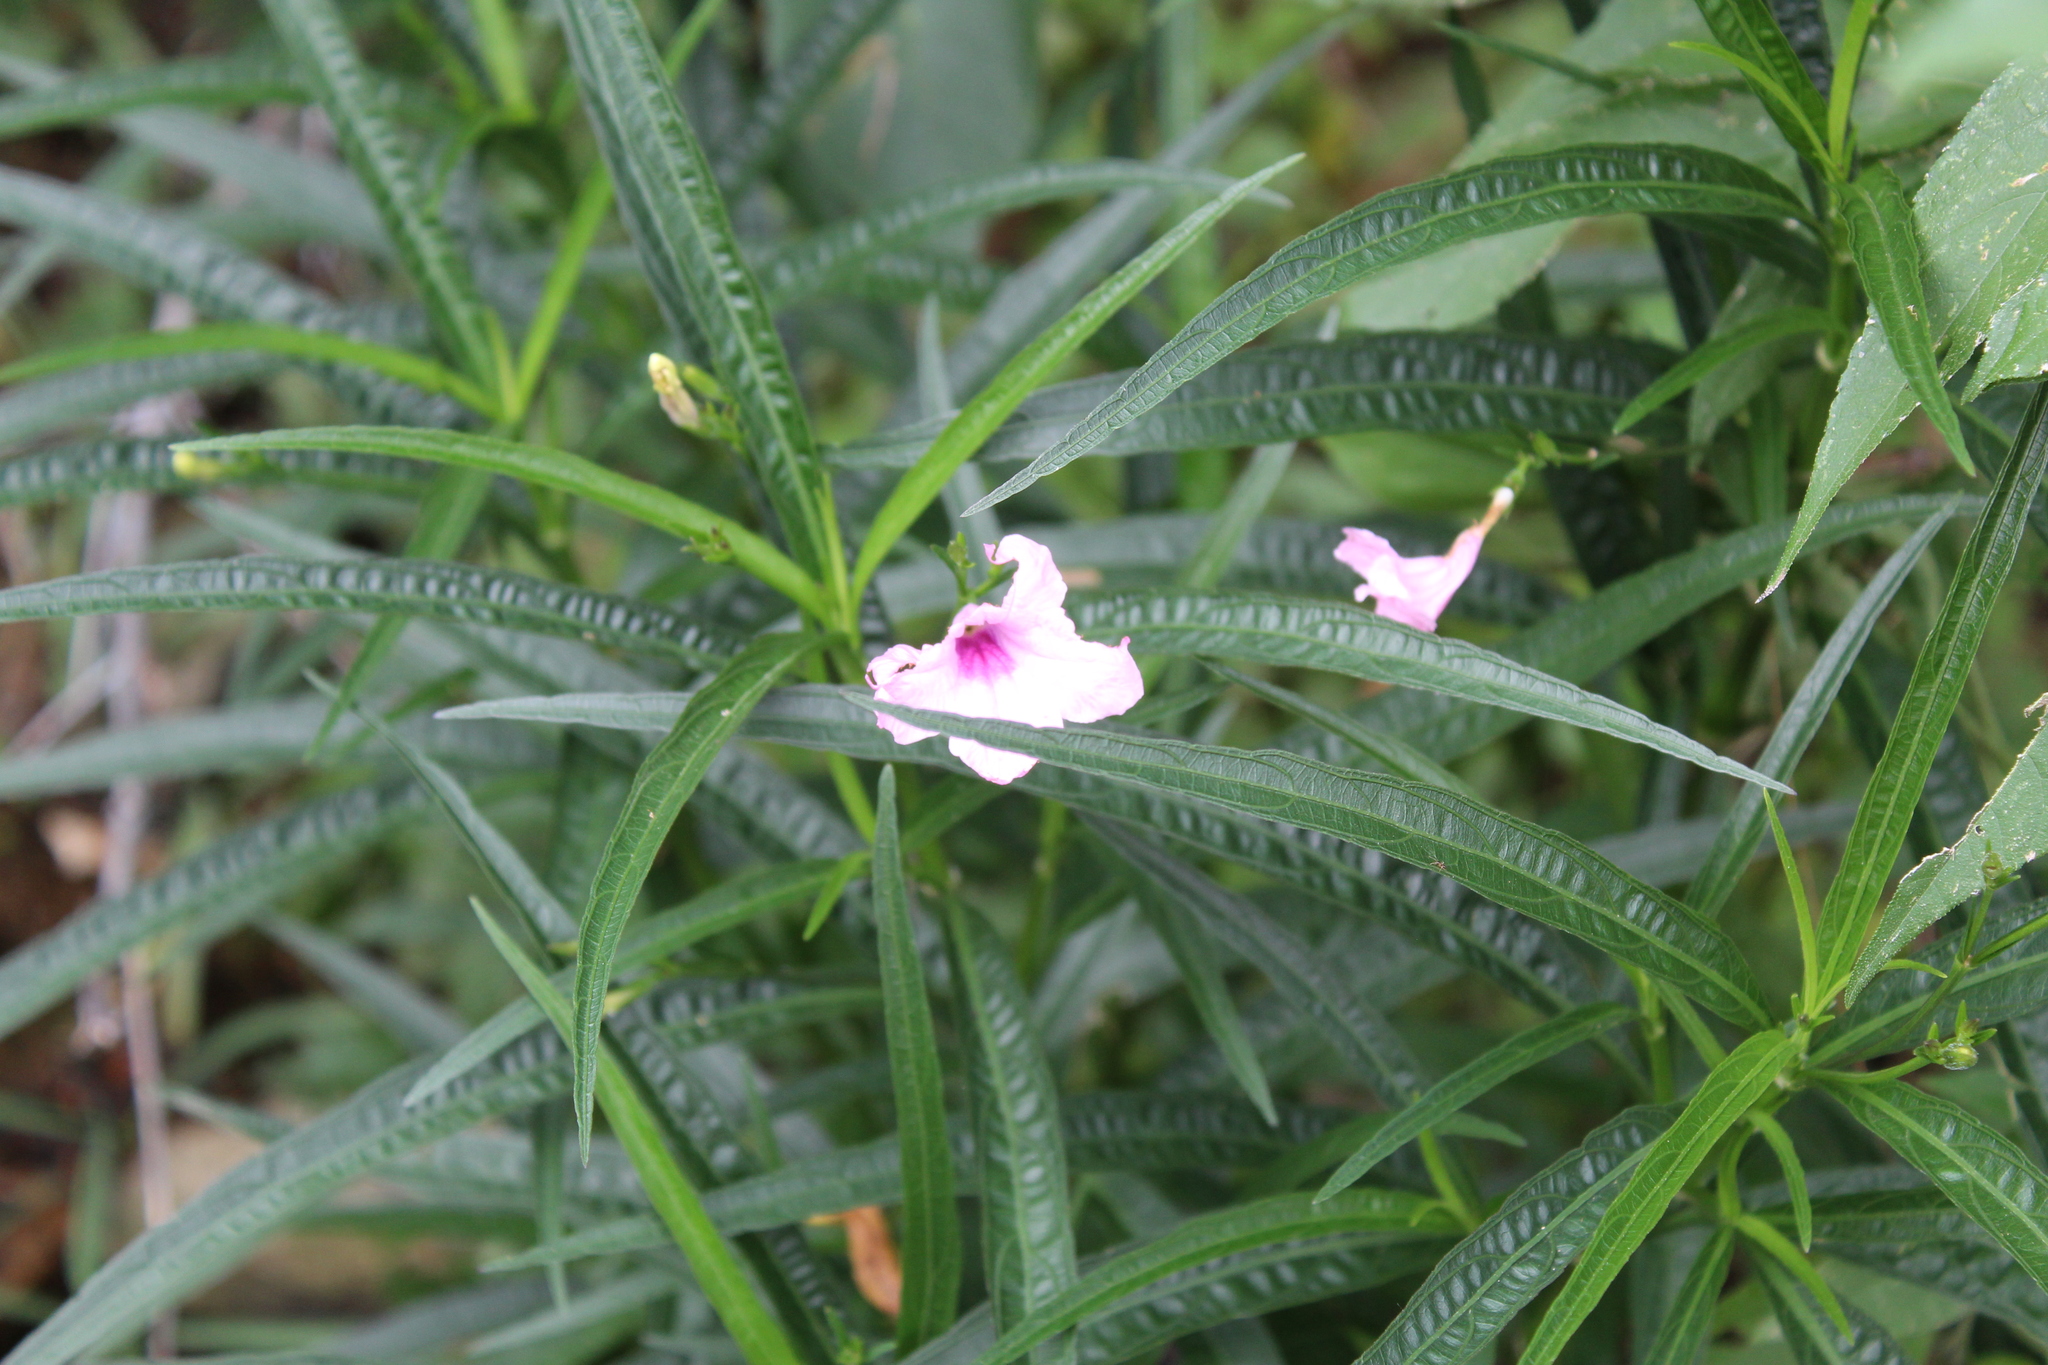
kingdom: Plantae
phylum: Tracheophyta
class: Magnoliopsida
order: Lamiales
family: Acanthaceae
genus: Ruellia
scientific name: Ruellia simplex
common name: Softseed wild petunia
